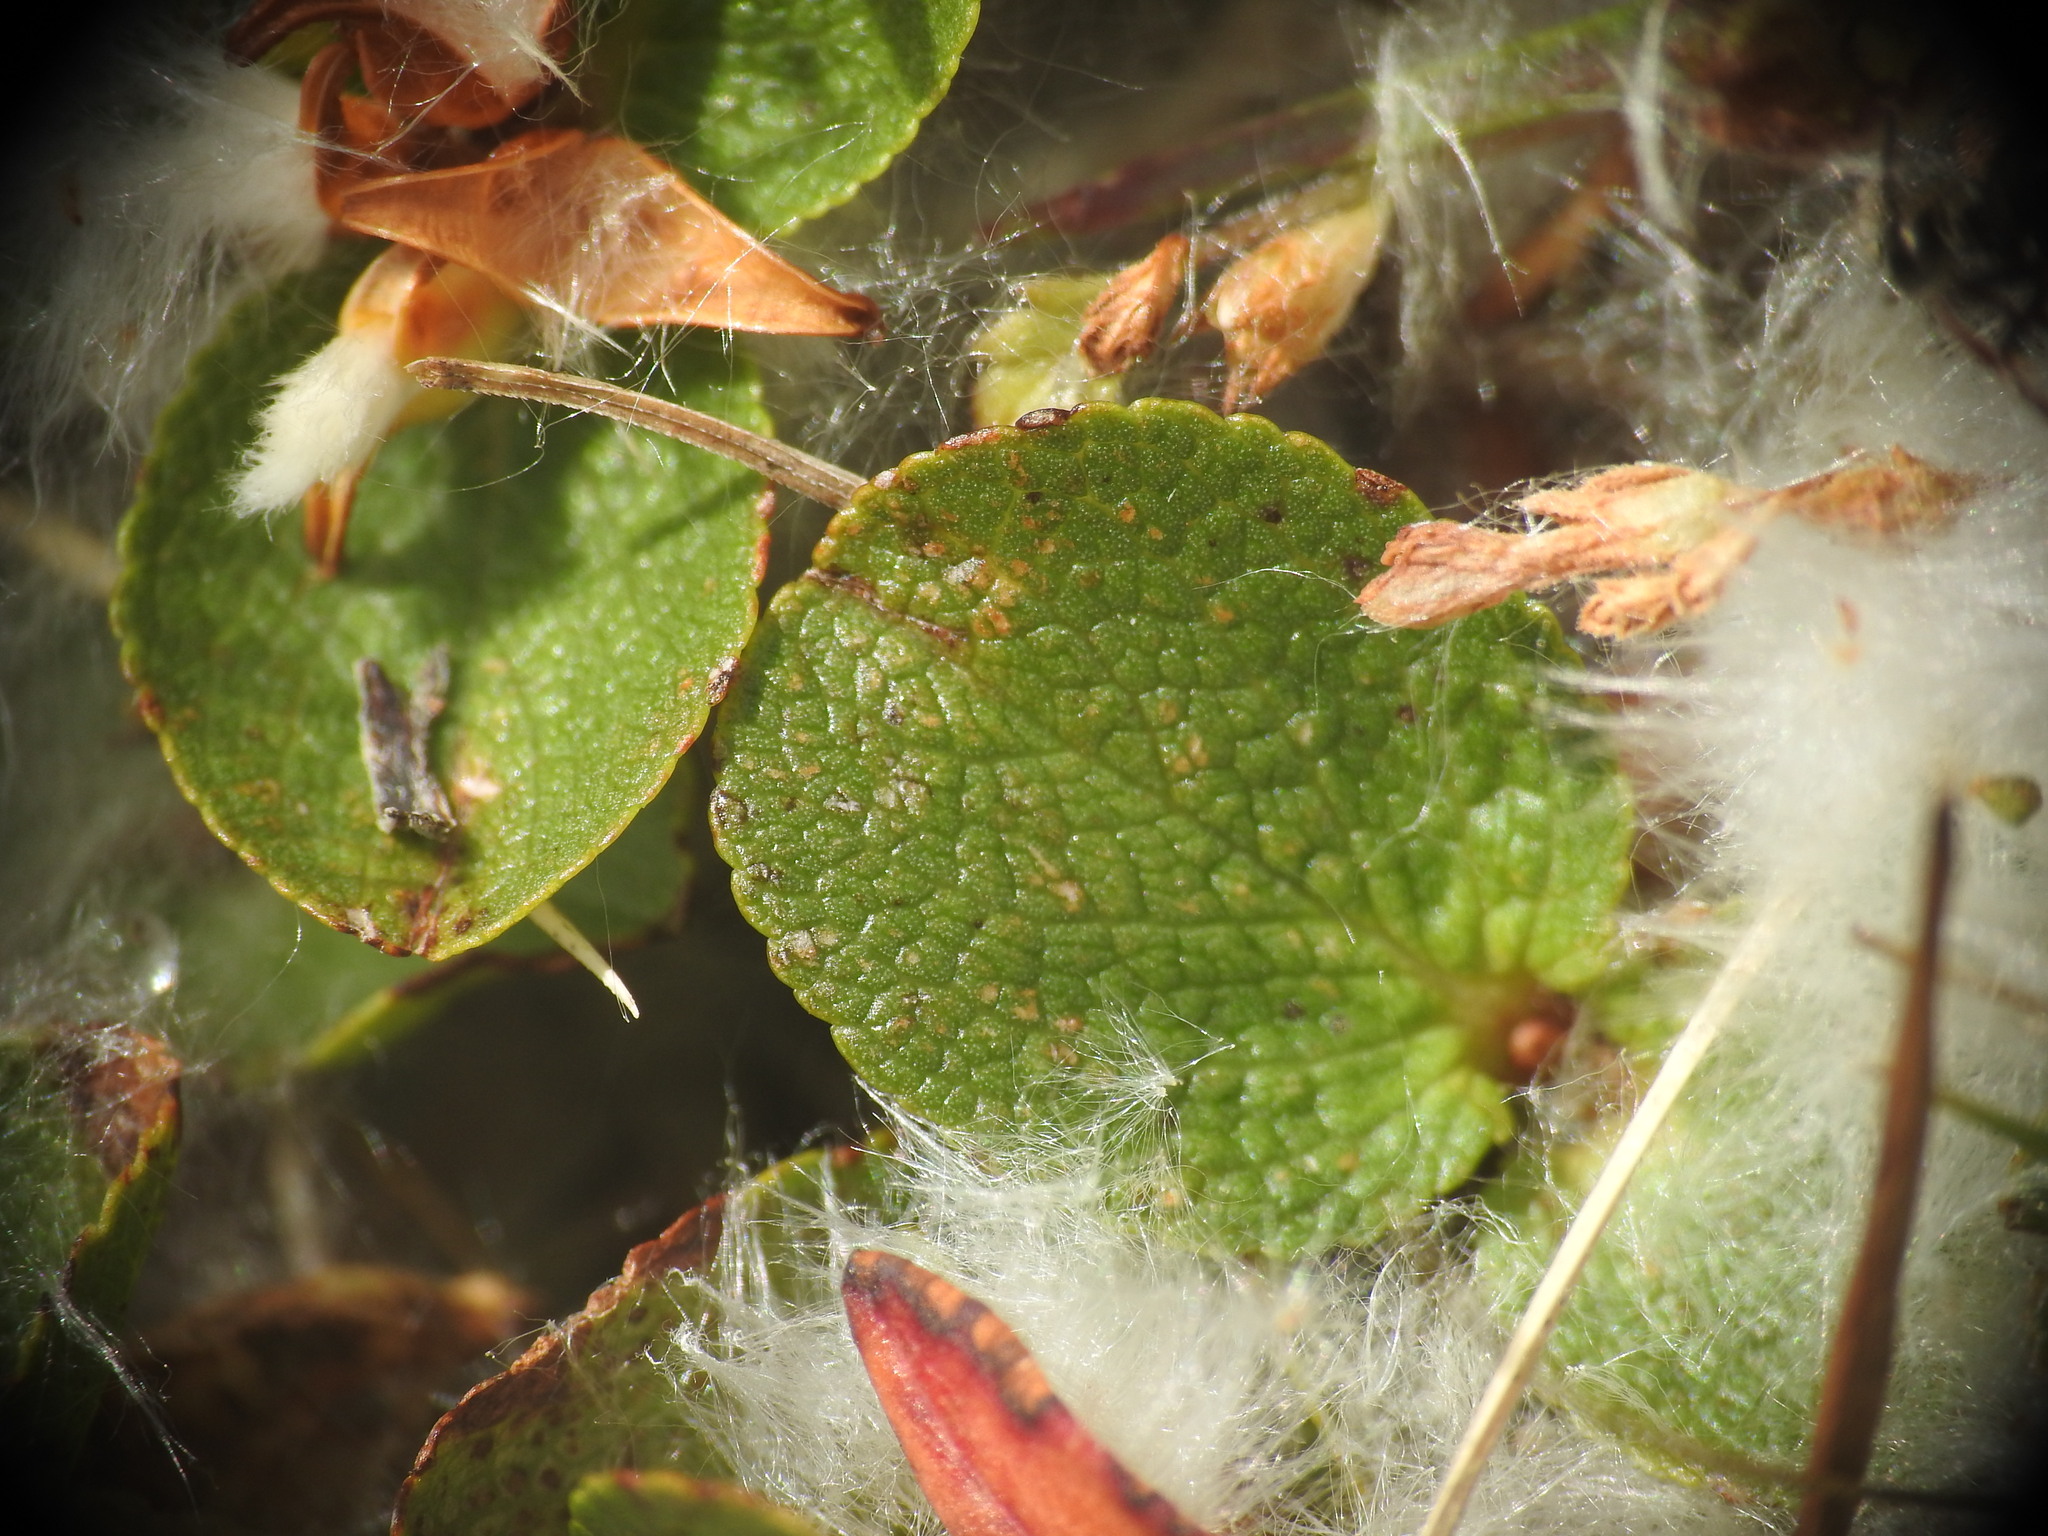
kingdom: Plantae
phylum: Tracheophyta
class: Magnoliopsida
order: Malpighiales
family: Salicaceae
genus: Salix
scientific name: Salix herbacea
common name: Dwarf willow
